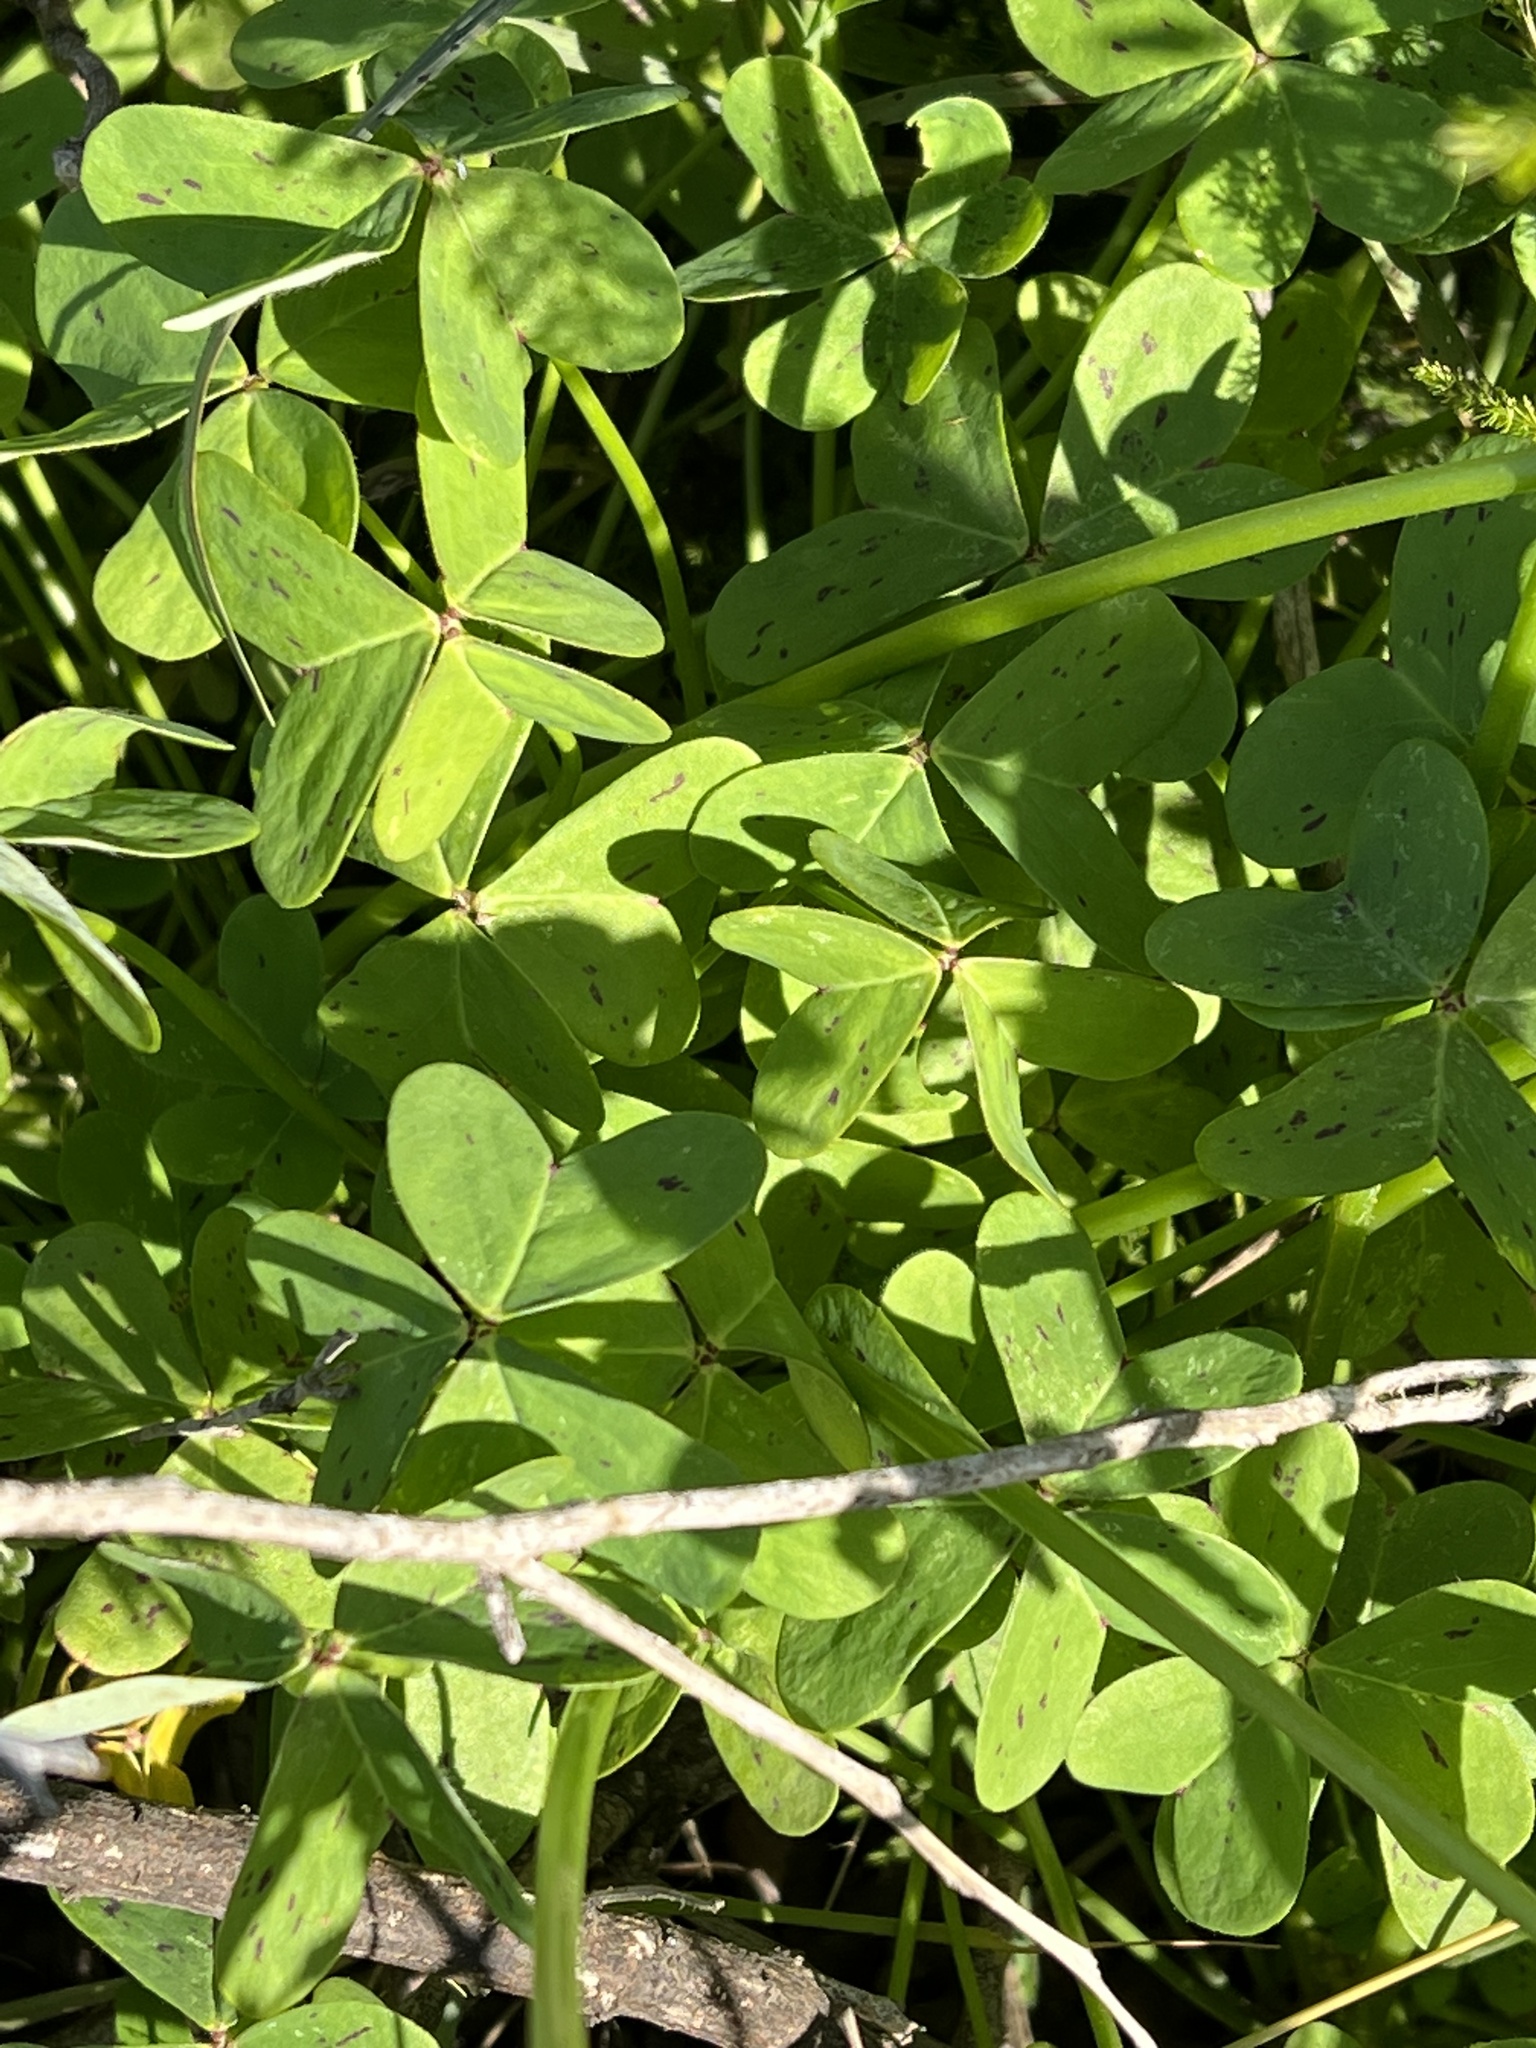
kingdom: Plantae
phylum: Tracheophyta
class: Magnoliopsida
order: Oxalidales
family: Oxalidaceae
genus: Oxalis
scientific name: Oxalis pes-caprae
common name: Bermuda-buttercup
